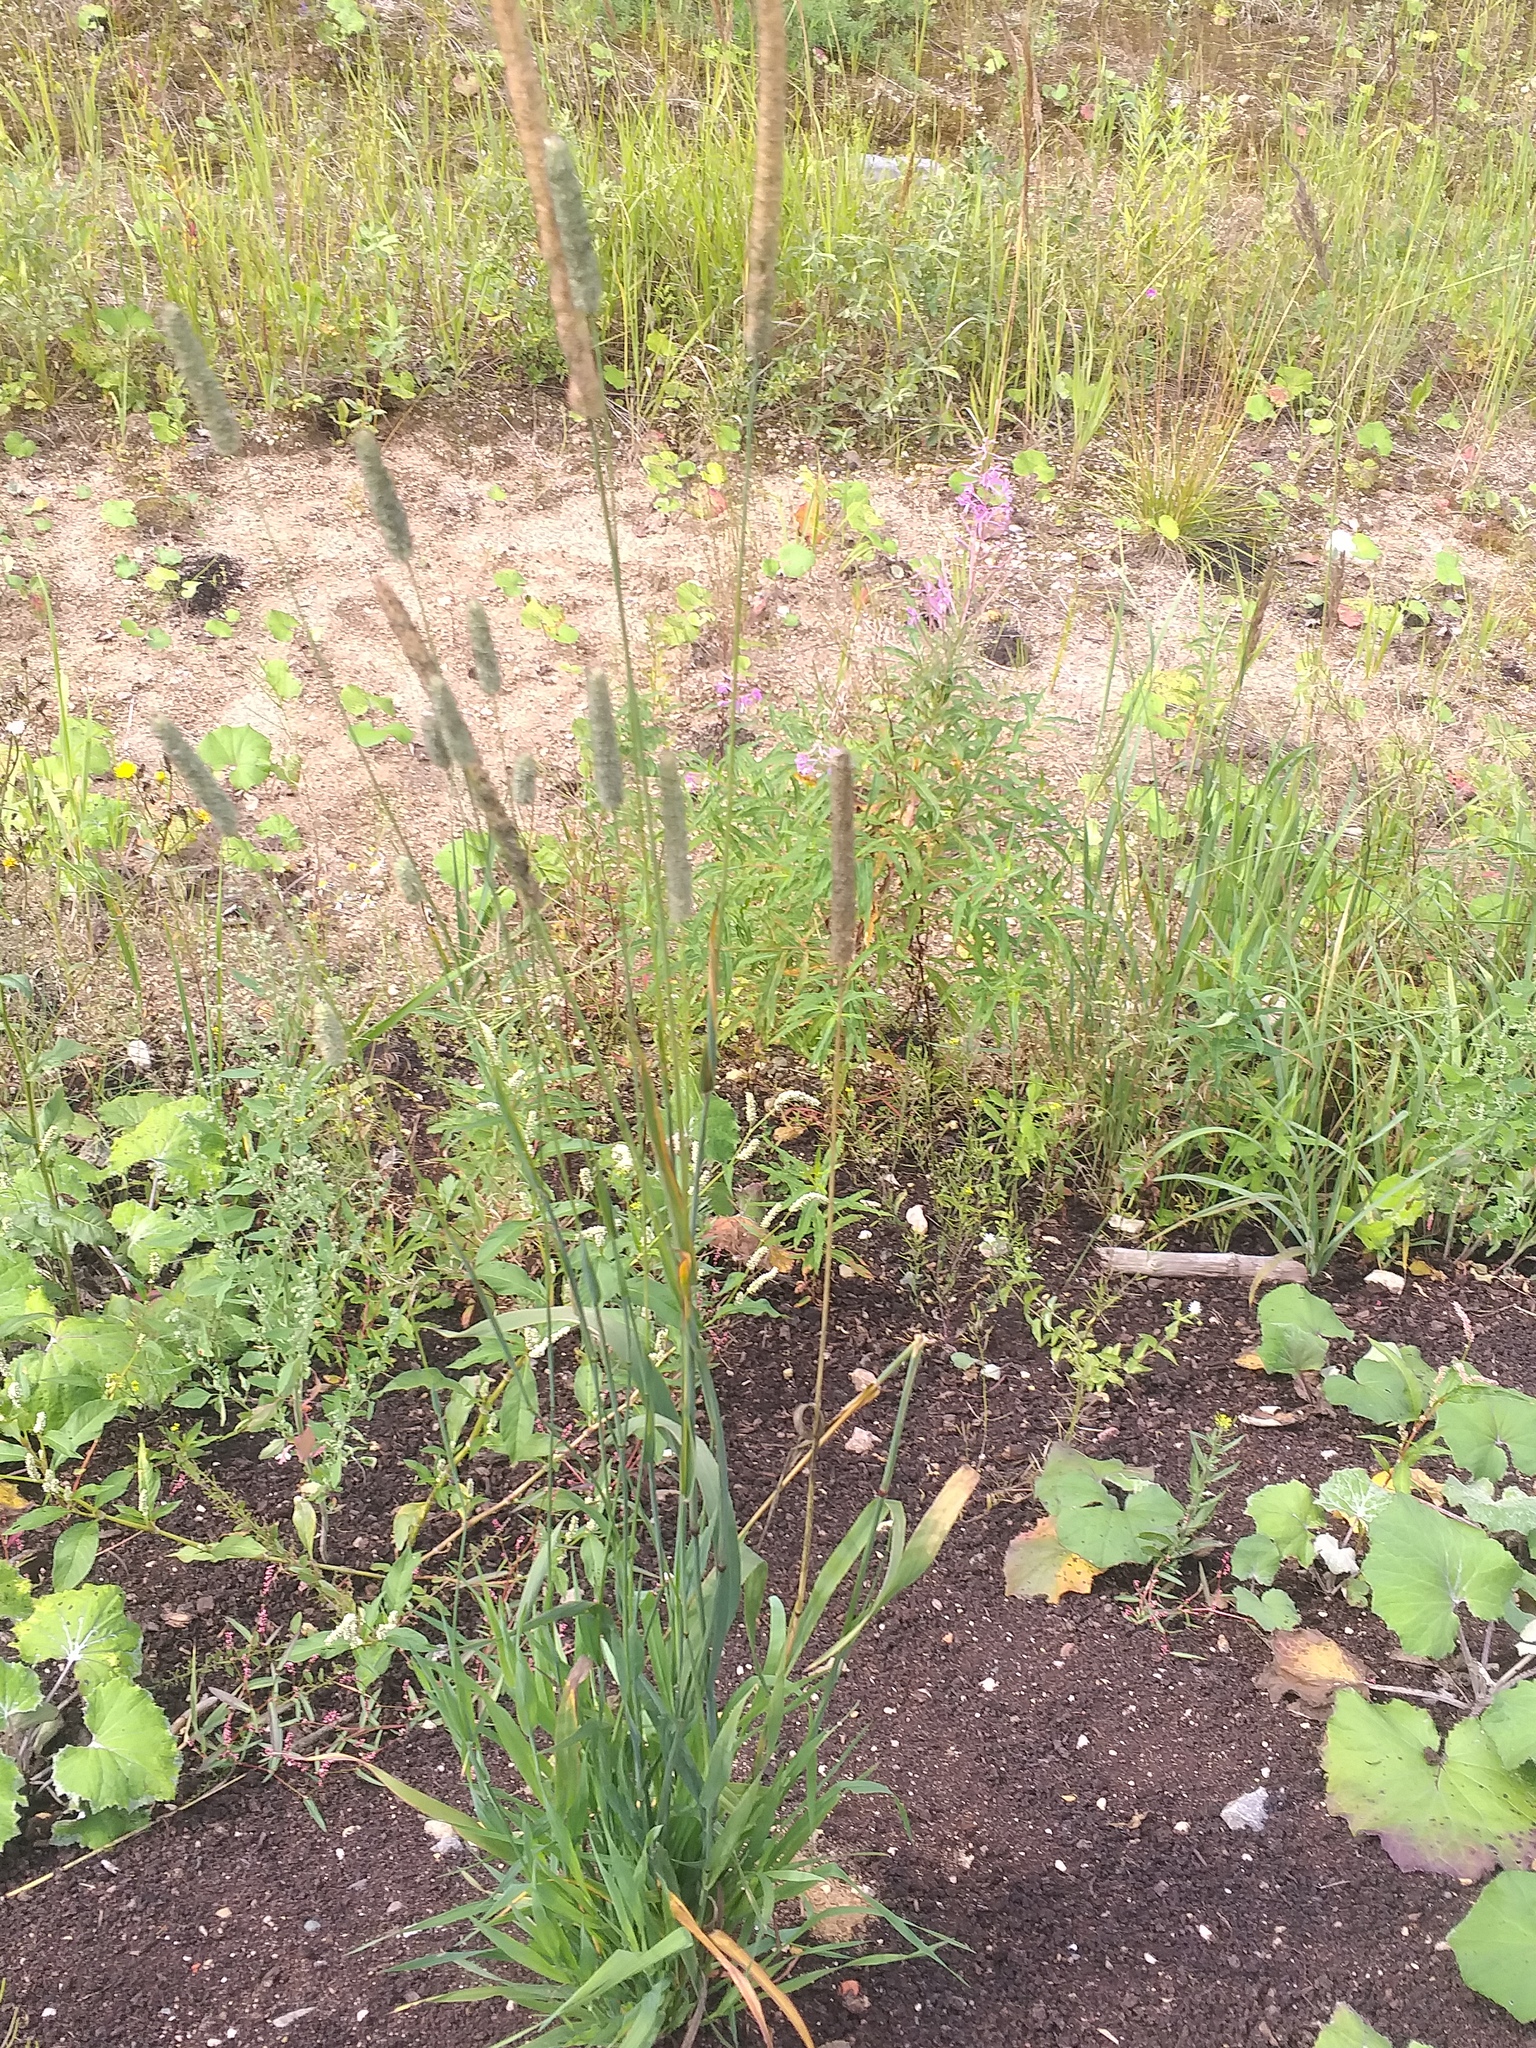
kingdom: Plantae
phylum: Tracheophyta
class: Liliopsida
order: Poales
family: Poaceae
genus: Phleum
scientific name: Phleum pratense
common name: Timothy grass
